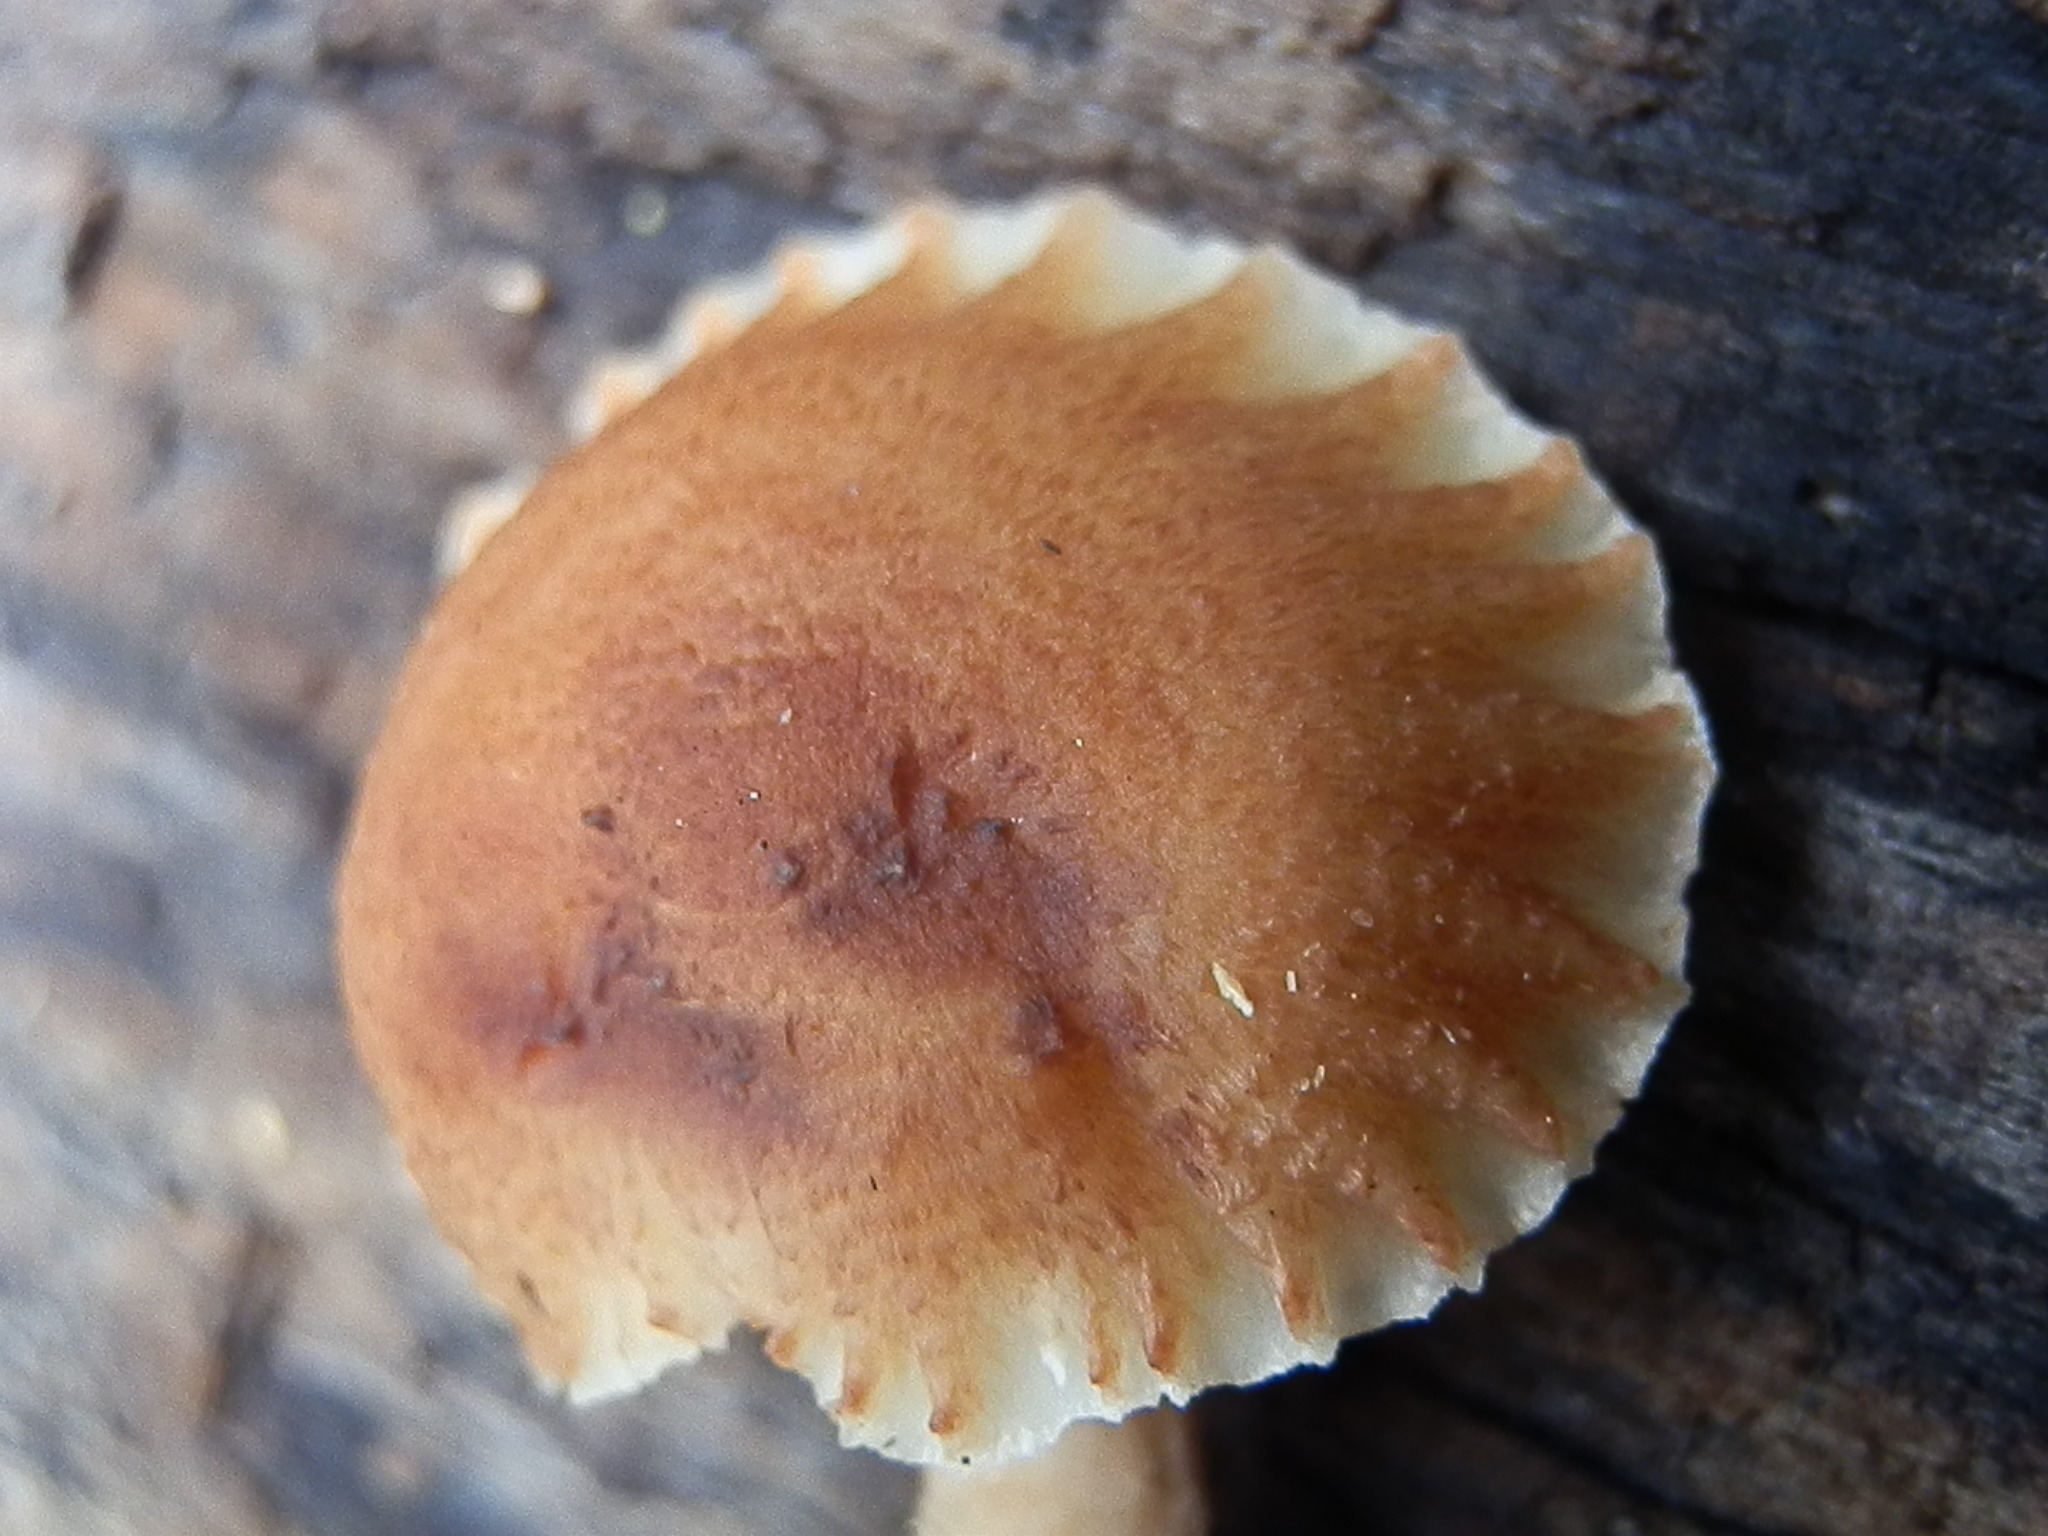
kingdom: Fungi
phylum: Basidiomycota
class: Agaricomycetes
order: Gloeophyllales
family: Gloeophyllaceae
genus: Heliocybe
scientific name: Heliocybe sulcata
